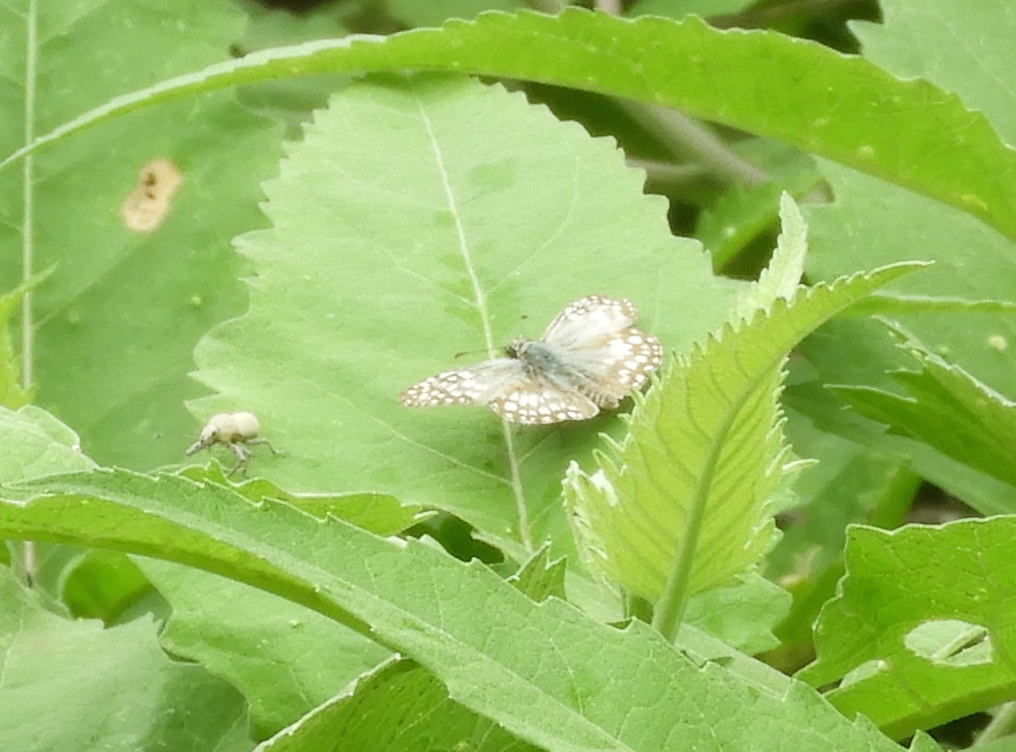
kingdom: Animalia
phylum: Arthropoda
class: Insecta
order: Lepidoptera
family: Hesperiidae
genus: Burnsius
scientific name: Burnsius
